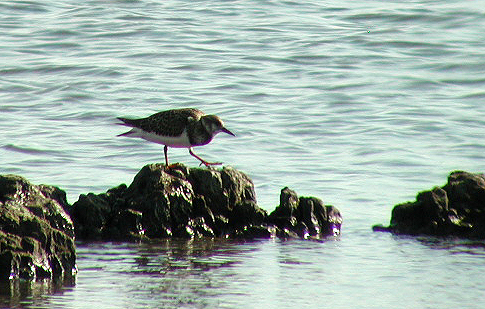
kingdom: Animalia
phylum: Chordata
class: Aves
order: Charadriiformes
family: Scolopacidae
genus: Arenaria
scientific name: Arenaria interpres
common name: Ruddy turnstone
